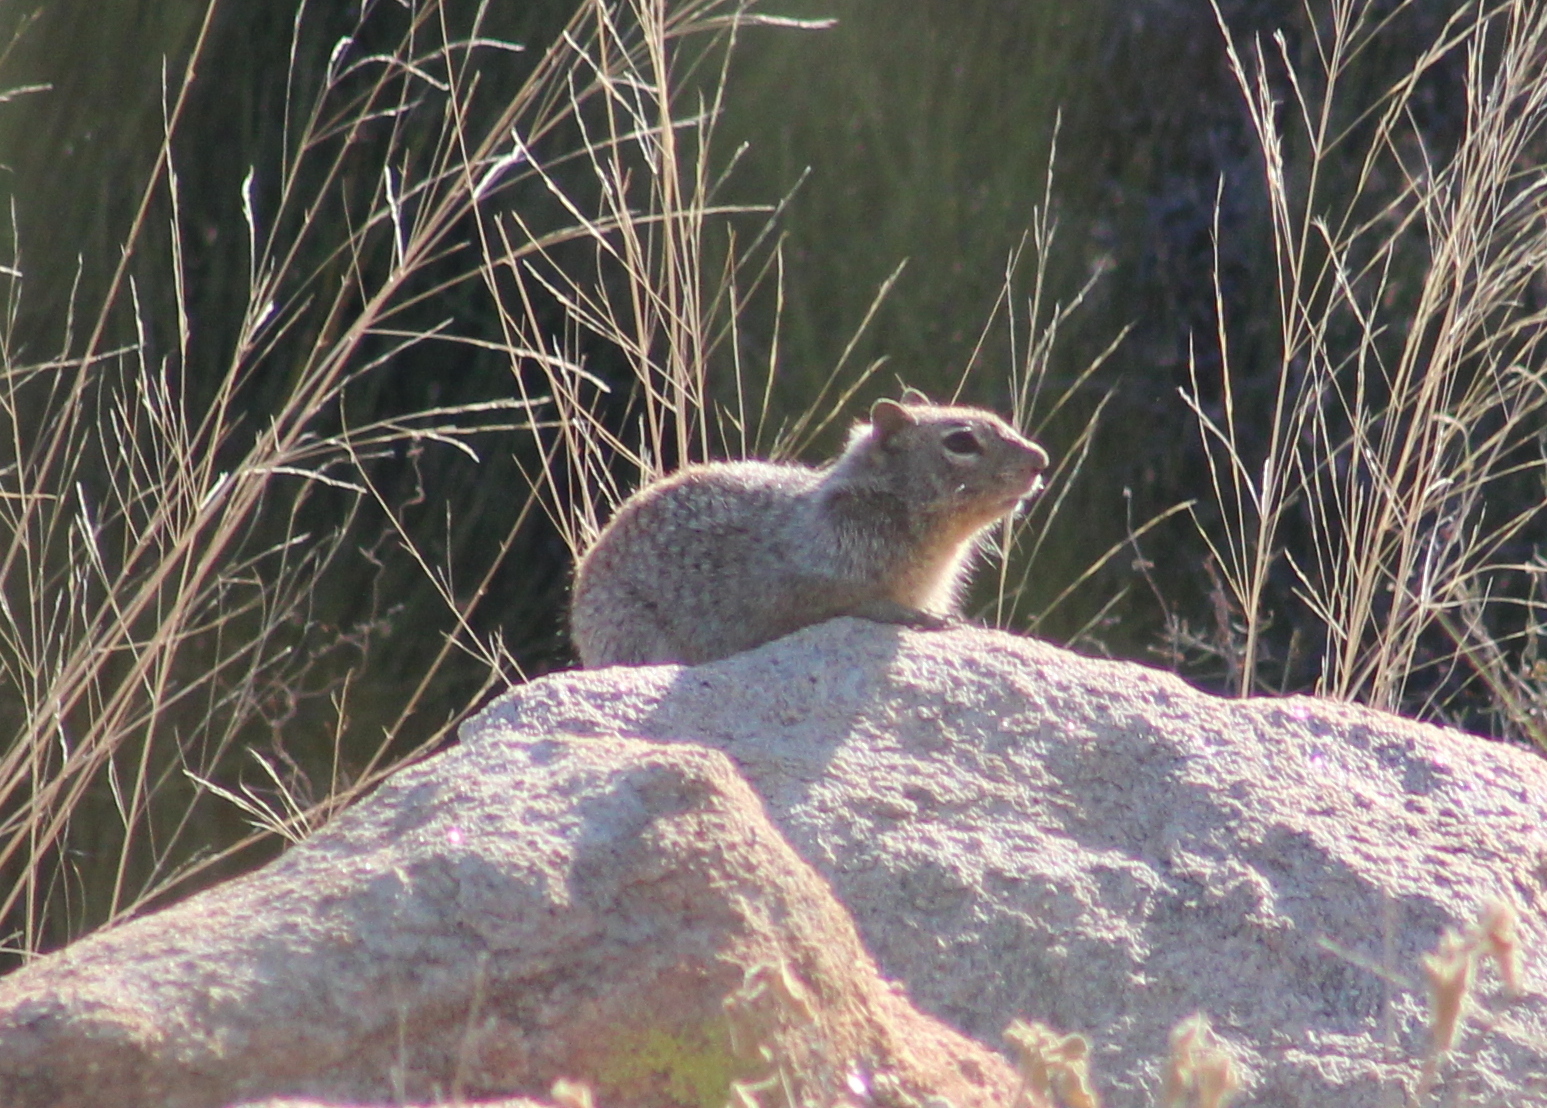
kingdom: Animalia
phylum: Chordata
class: Mammalia
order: Rodentia
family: Sciuridae
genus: Otospermophilus
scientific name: Otospermophilus variegatus
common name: Rock squirrel
